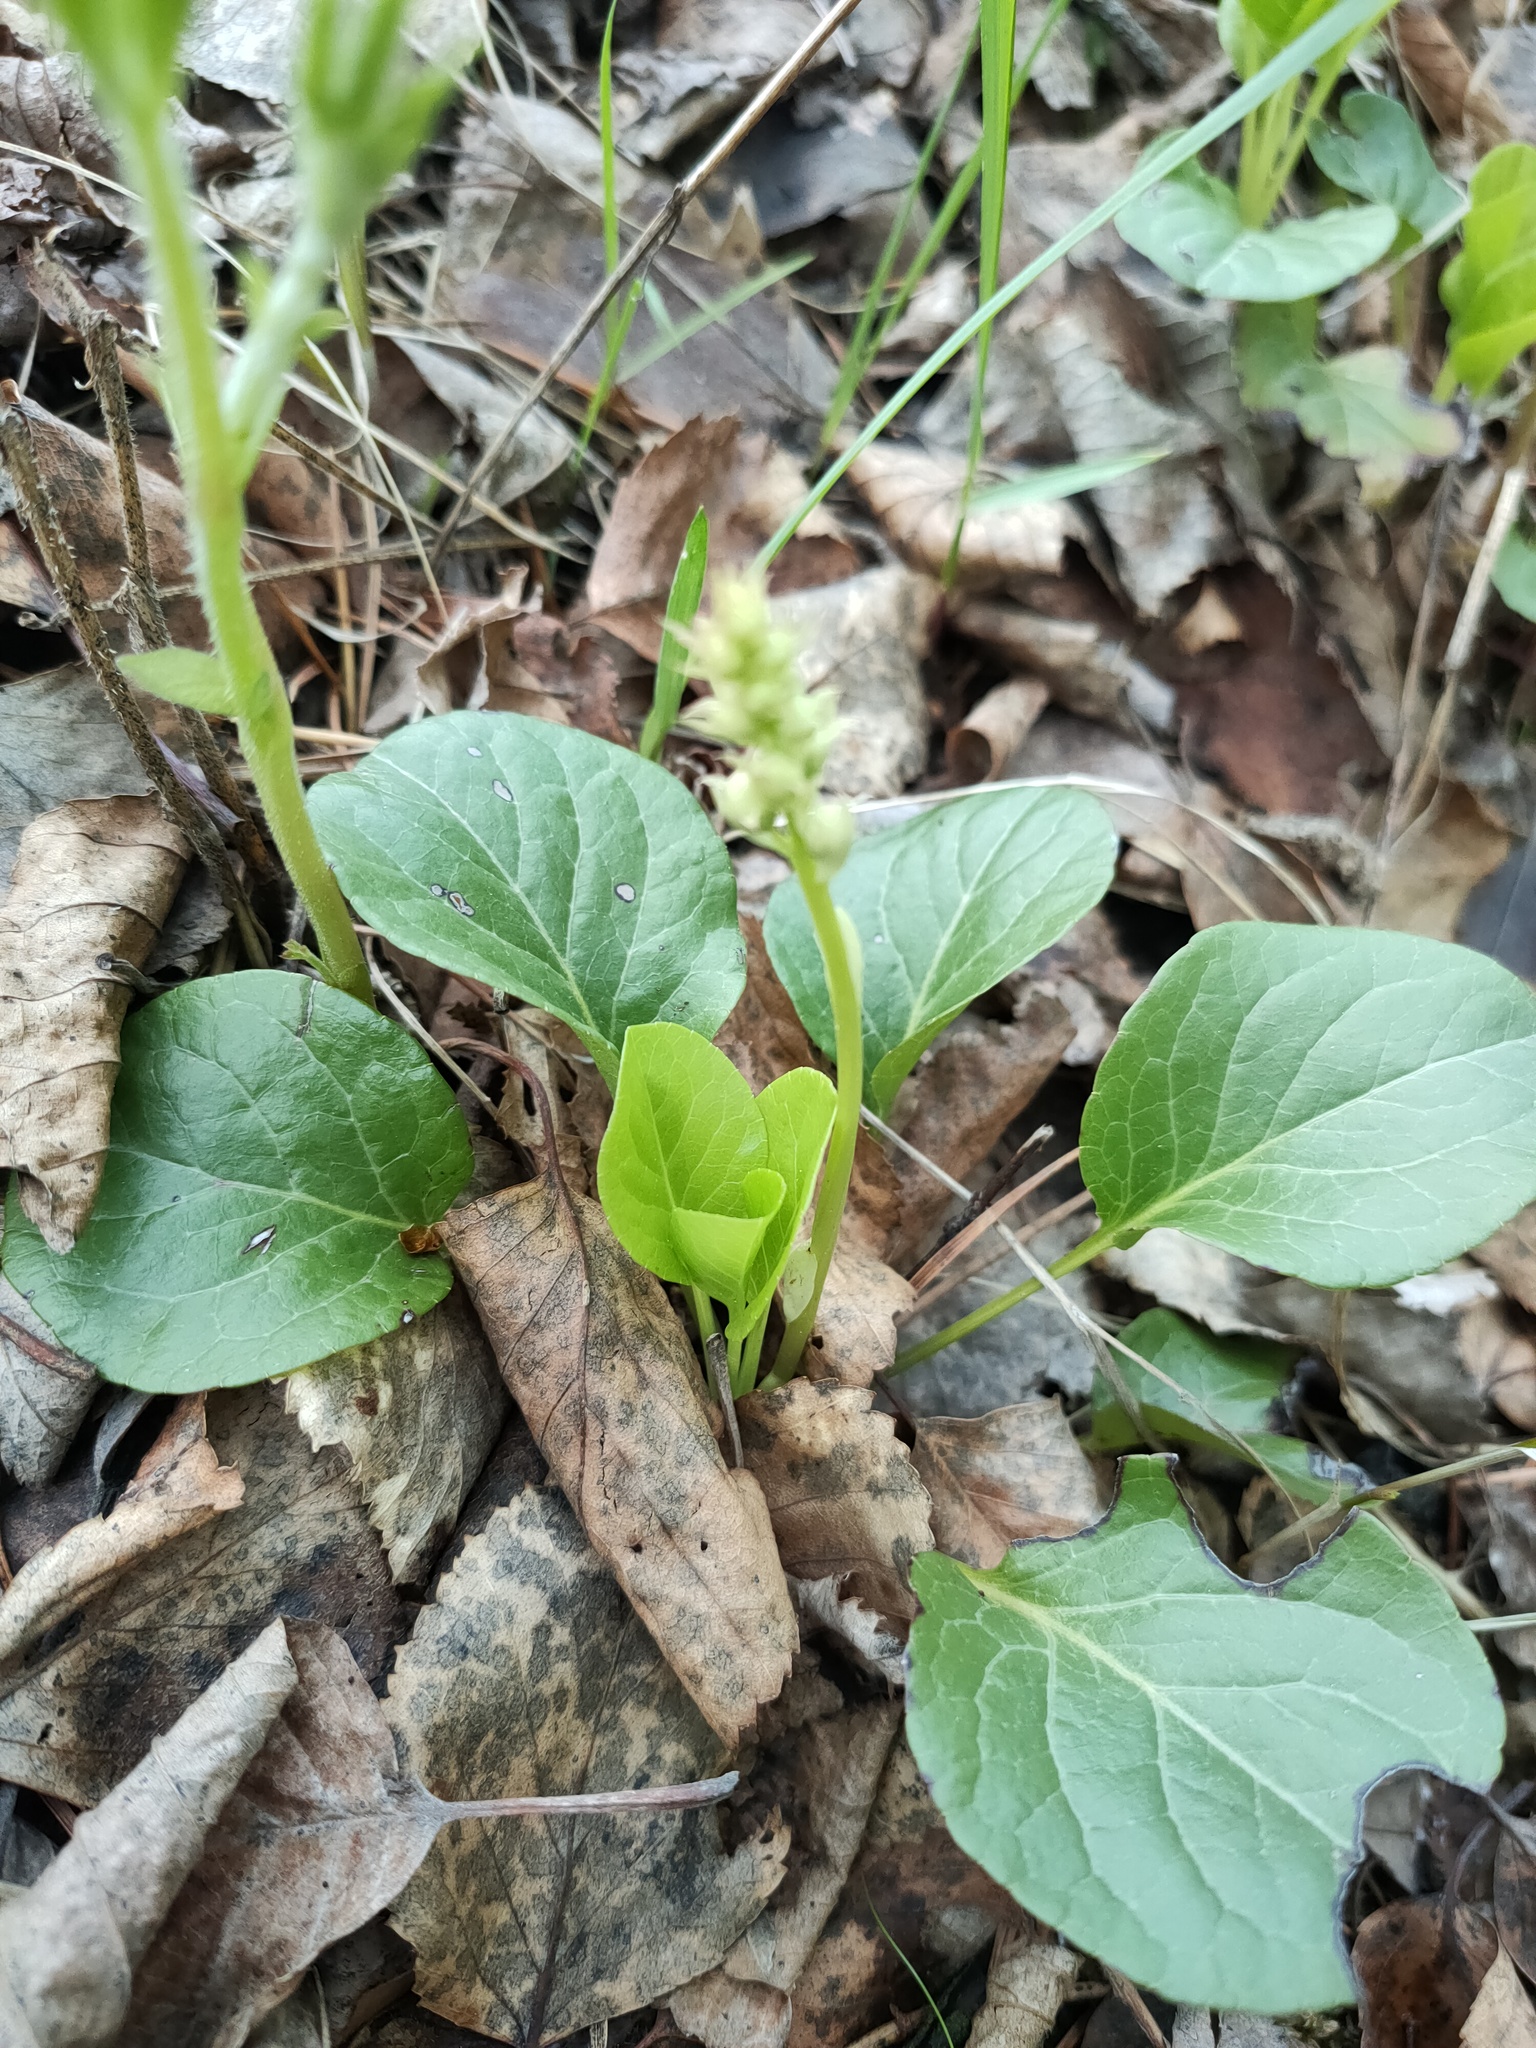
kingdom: Plantae
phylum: Tracheophyta
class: Magnoliopsida
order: Ericales
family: Ericaceae
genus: Pyrola
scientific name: Pyrola rotundifolia
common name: Round-leaved wintergreen
